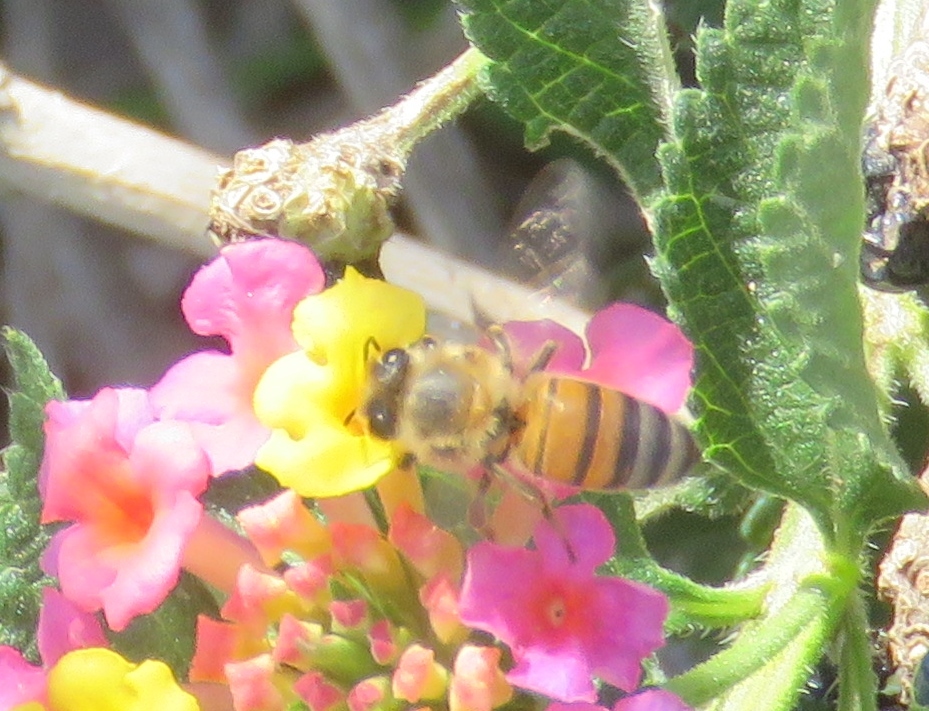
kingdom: Animalia
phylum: Arthropoda
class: Insecta
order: Hymenoptera
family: Apidae
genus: Apis
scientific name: Apis mellifera
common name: Honey bee
